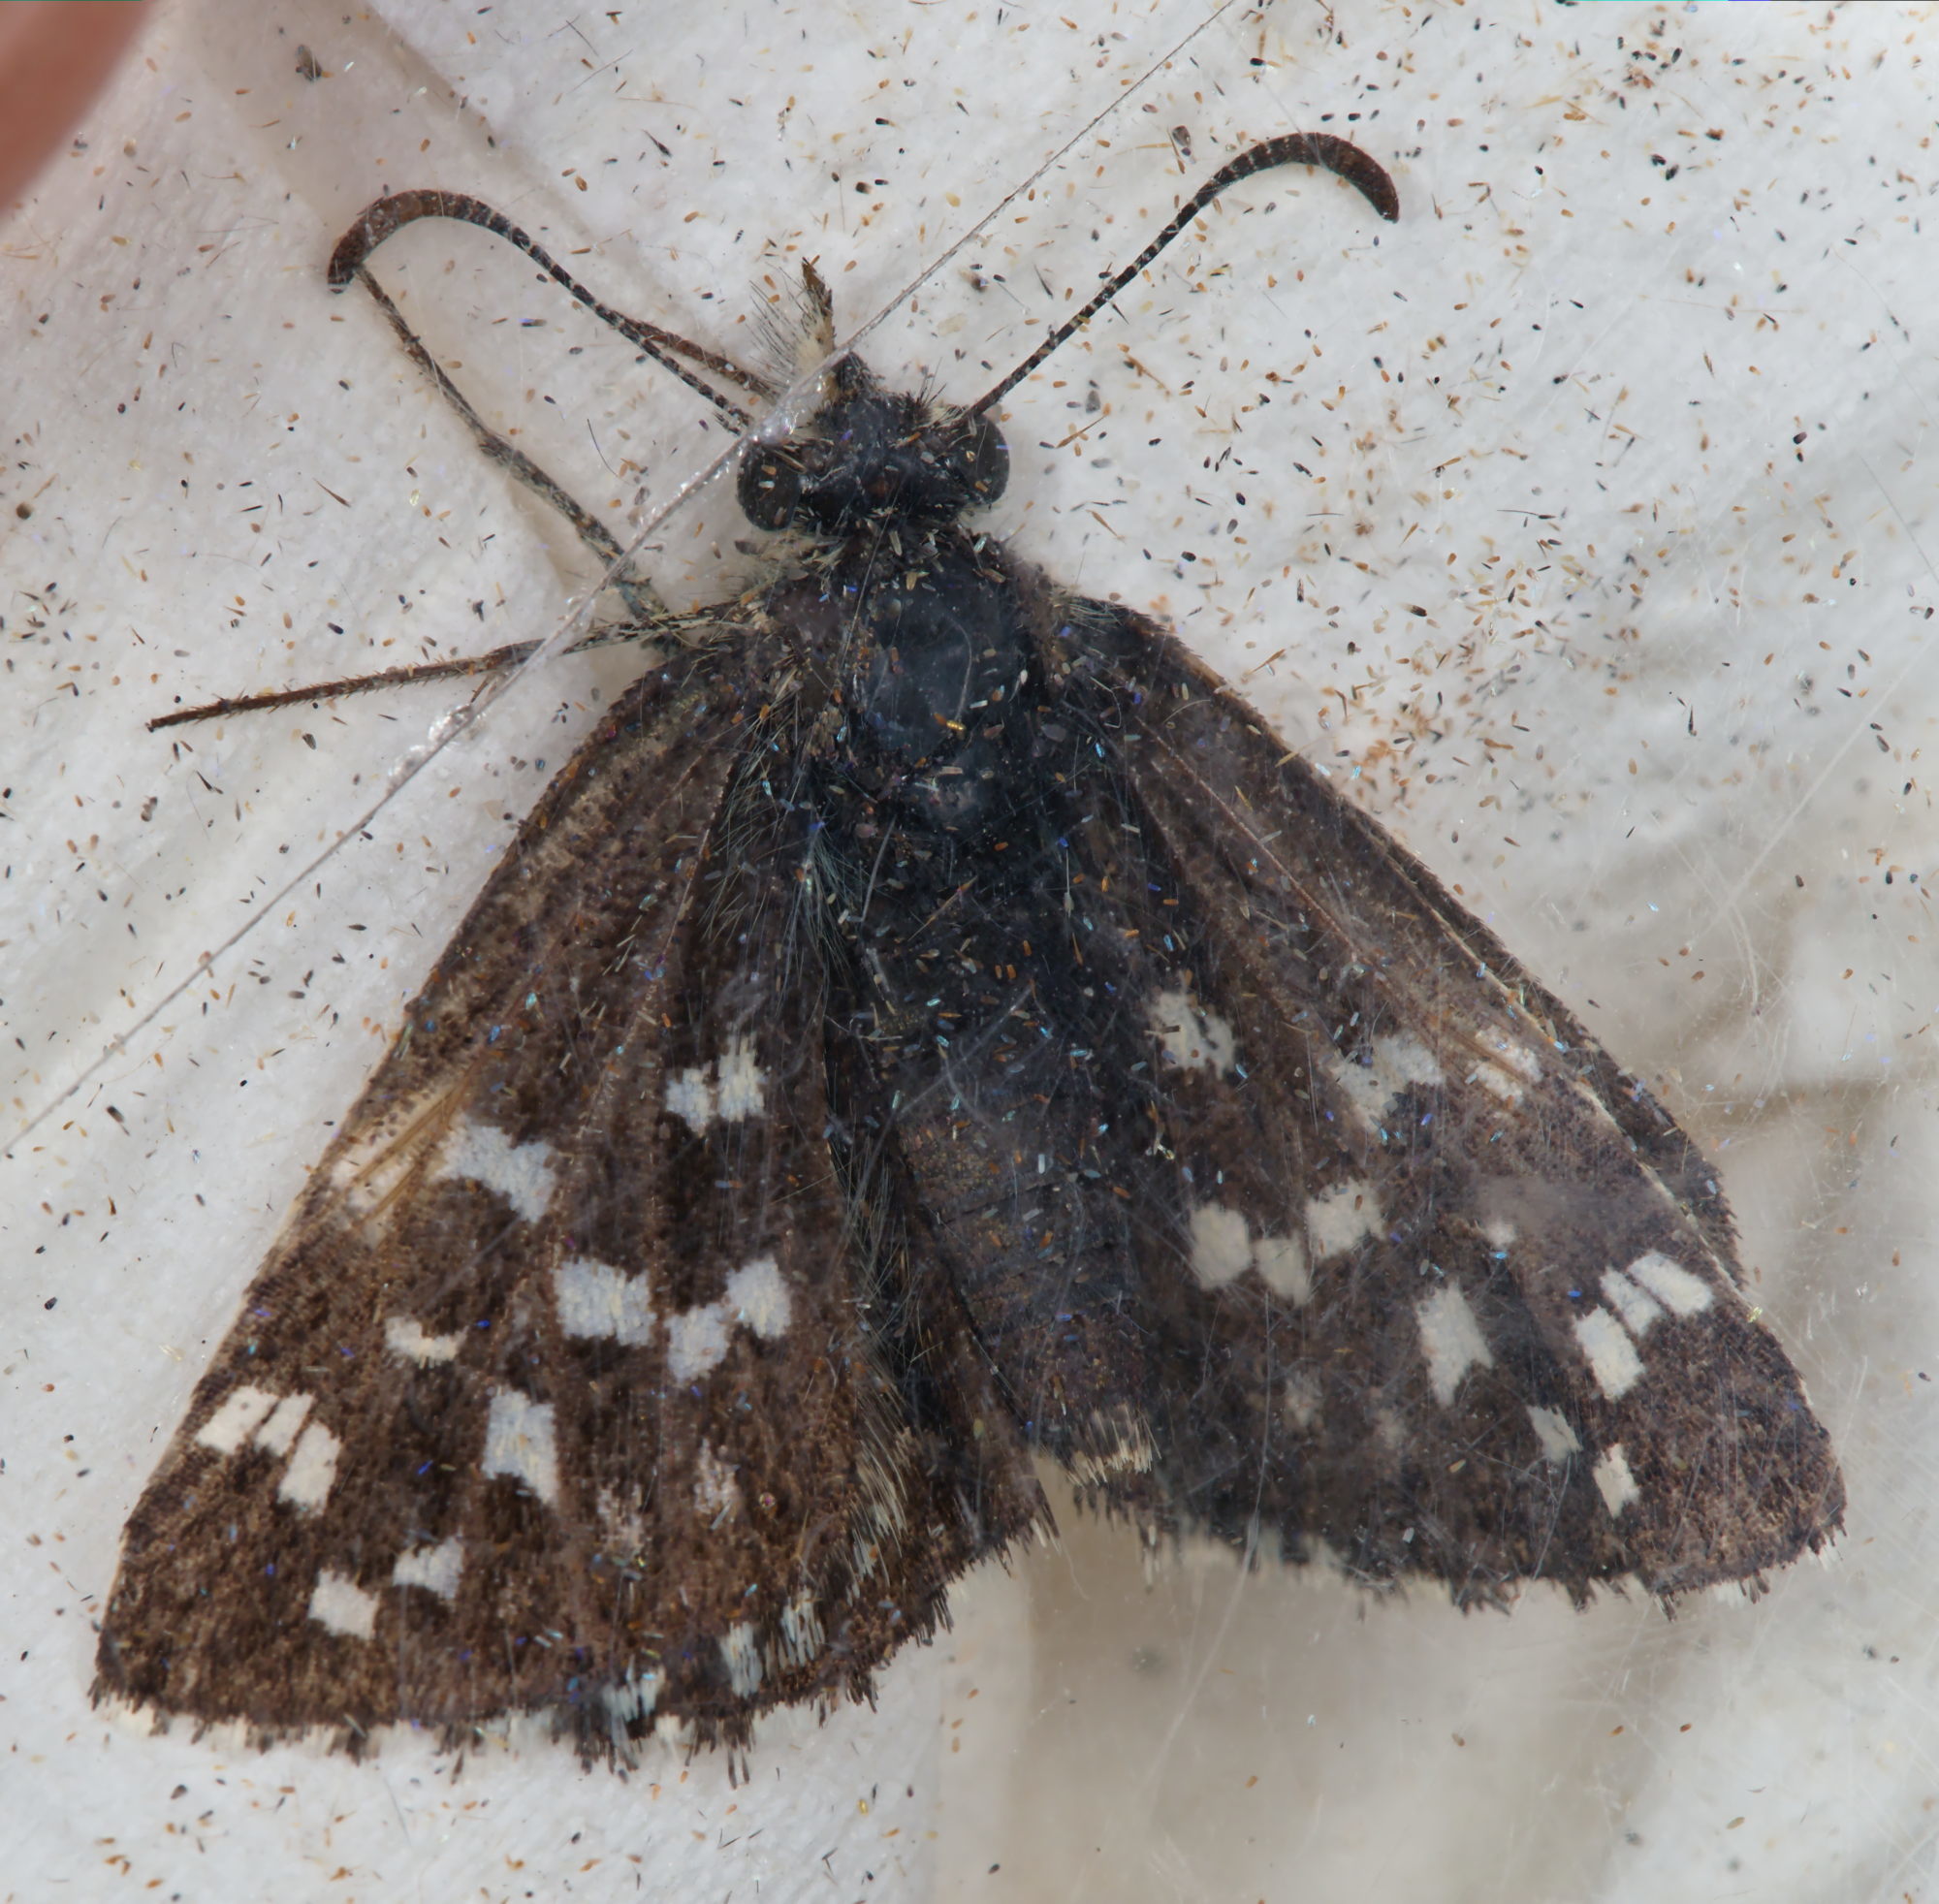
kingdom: Animalia
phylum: Arthropoda
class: Insecta
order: Lepidoptera
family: Hesperiidae
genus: Pyrgus
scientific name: Pyrgus malvae
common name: Grizzled skipper
